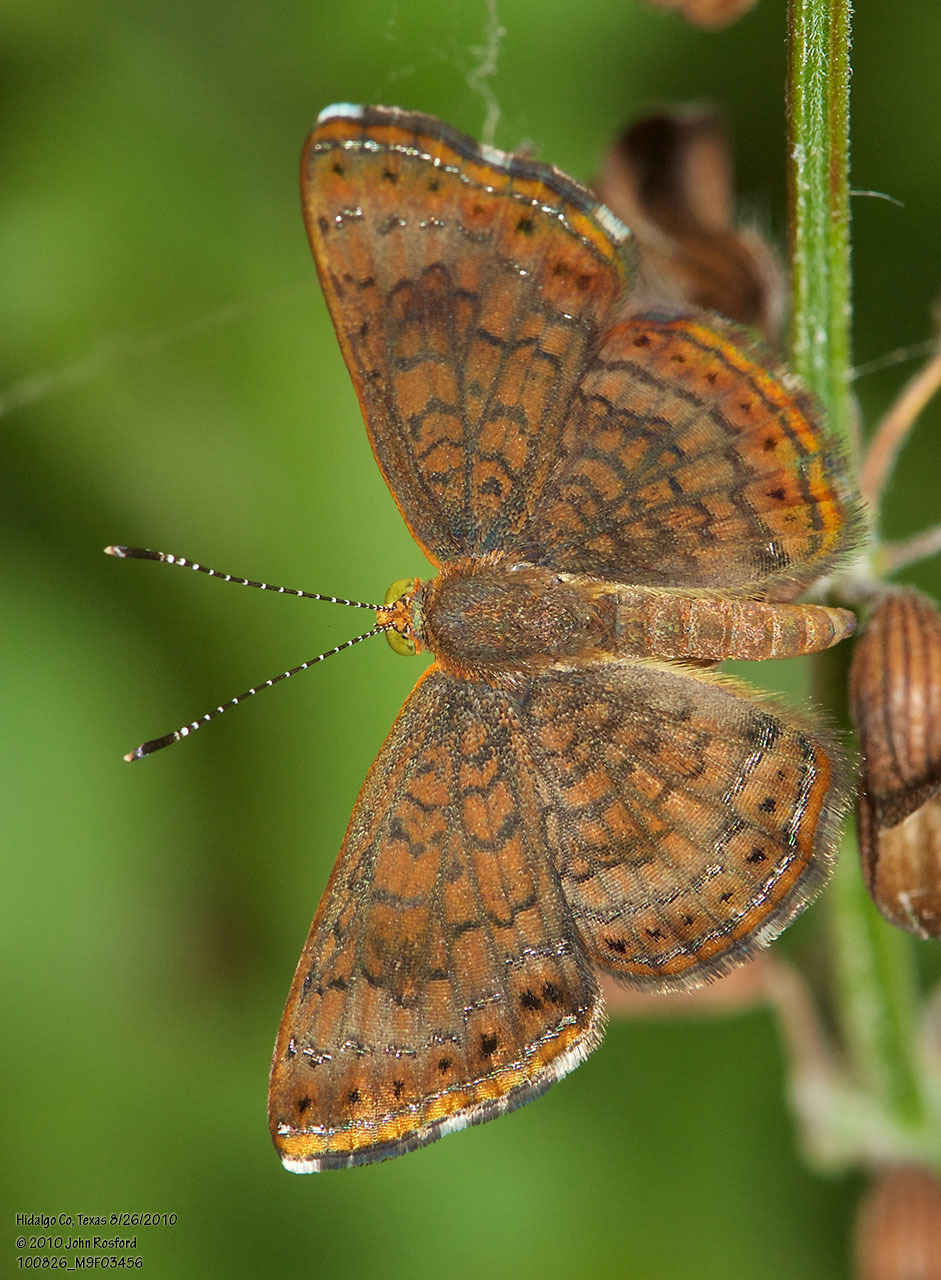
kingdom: Animalia
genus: Calephelis
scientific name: Calephelis nemesis
